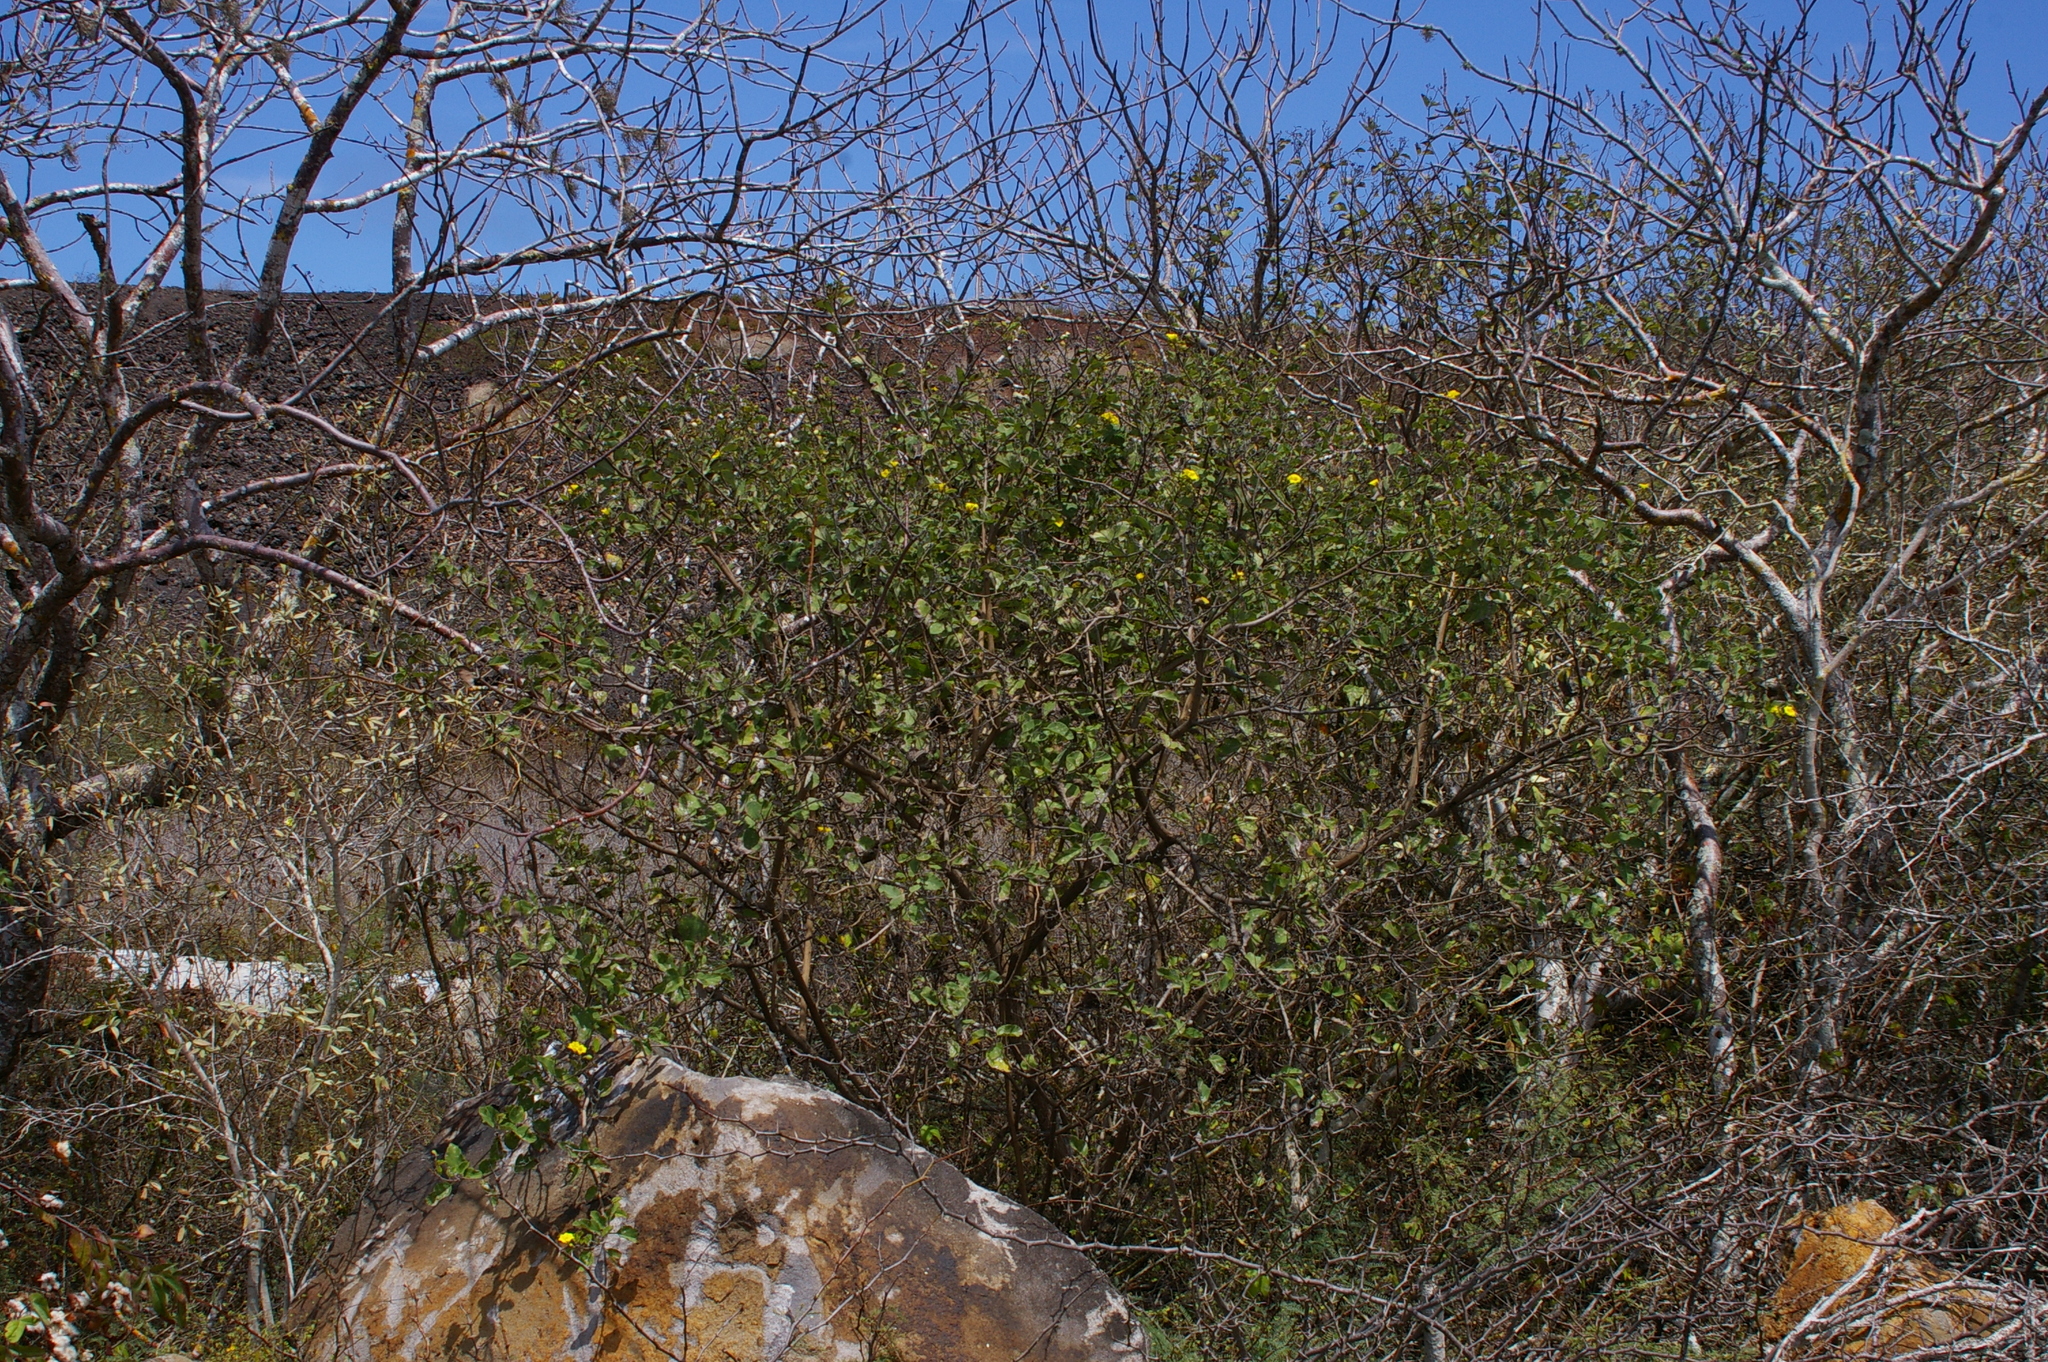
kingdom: Plantae
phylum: Tracheophyta
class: Magnoliopsida
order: Boraginales
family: Cordiaceae
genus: Cordia
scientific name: Cordia lutea
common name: Yellow geiger
